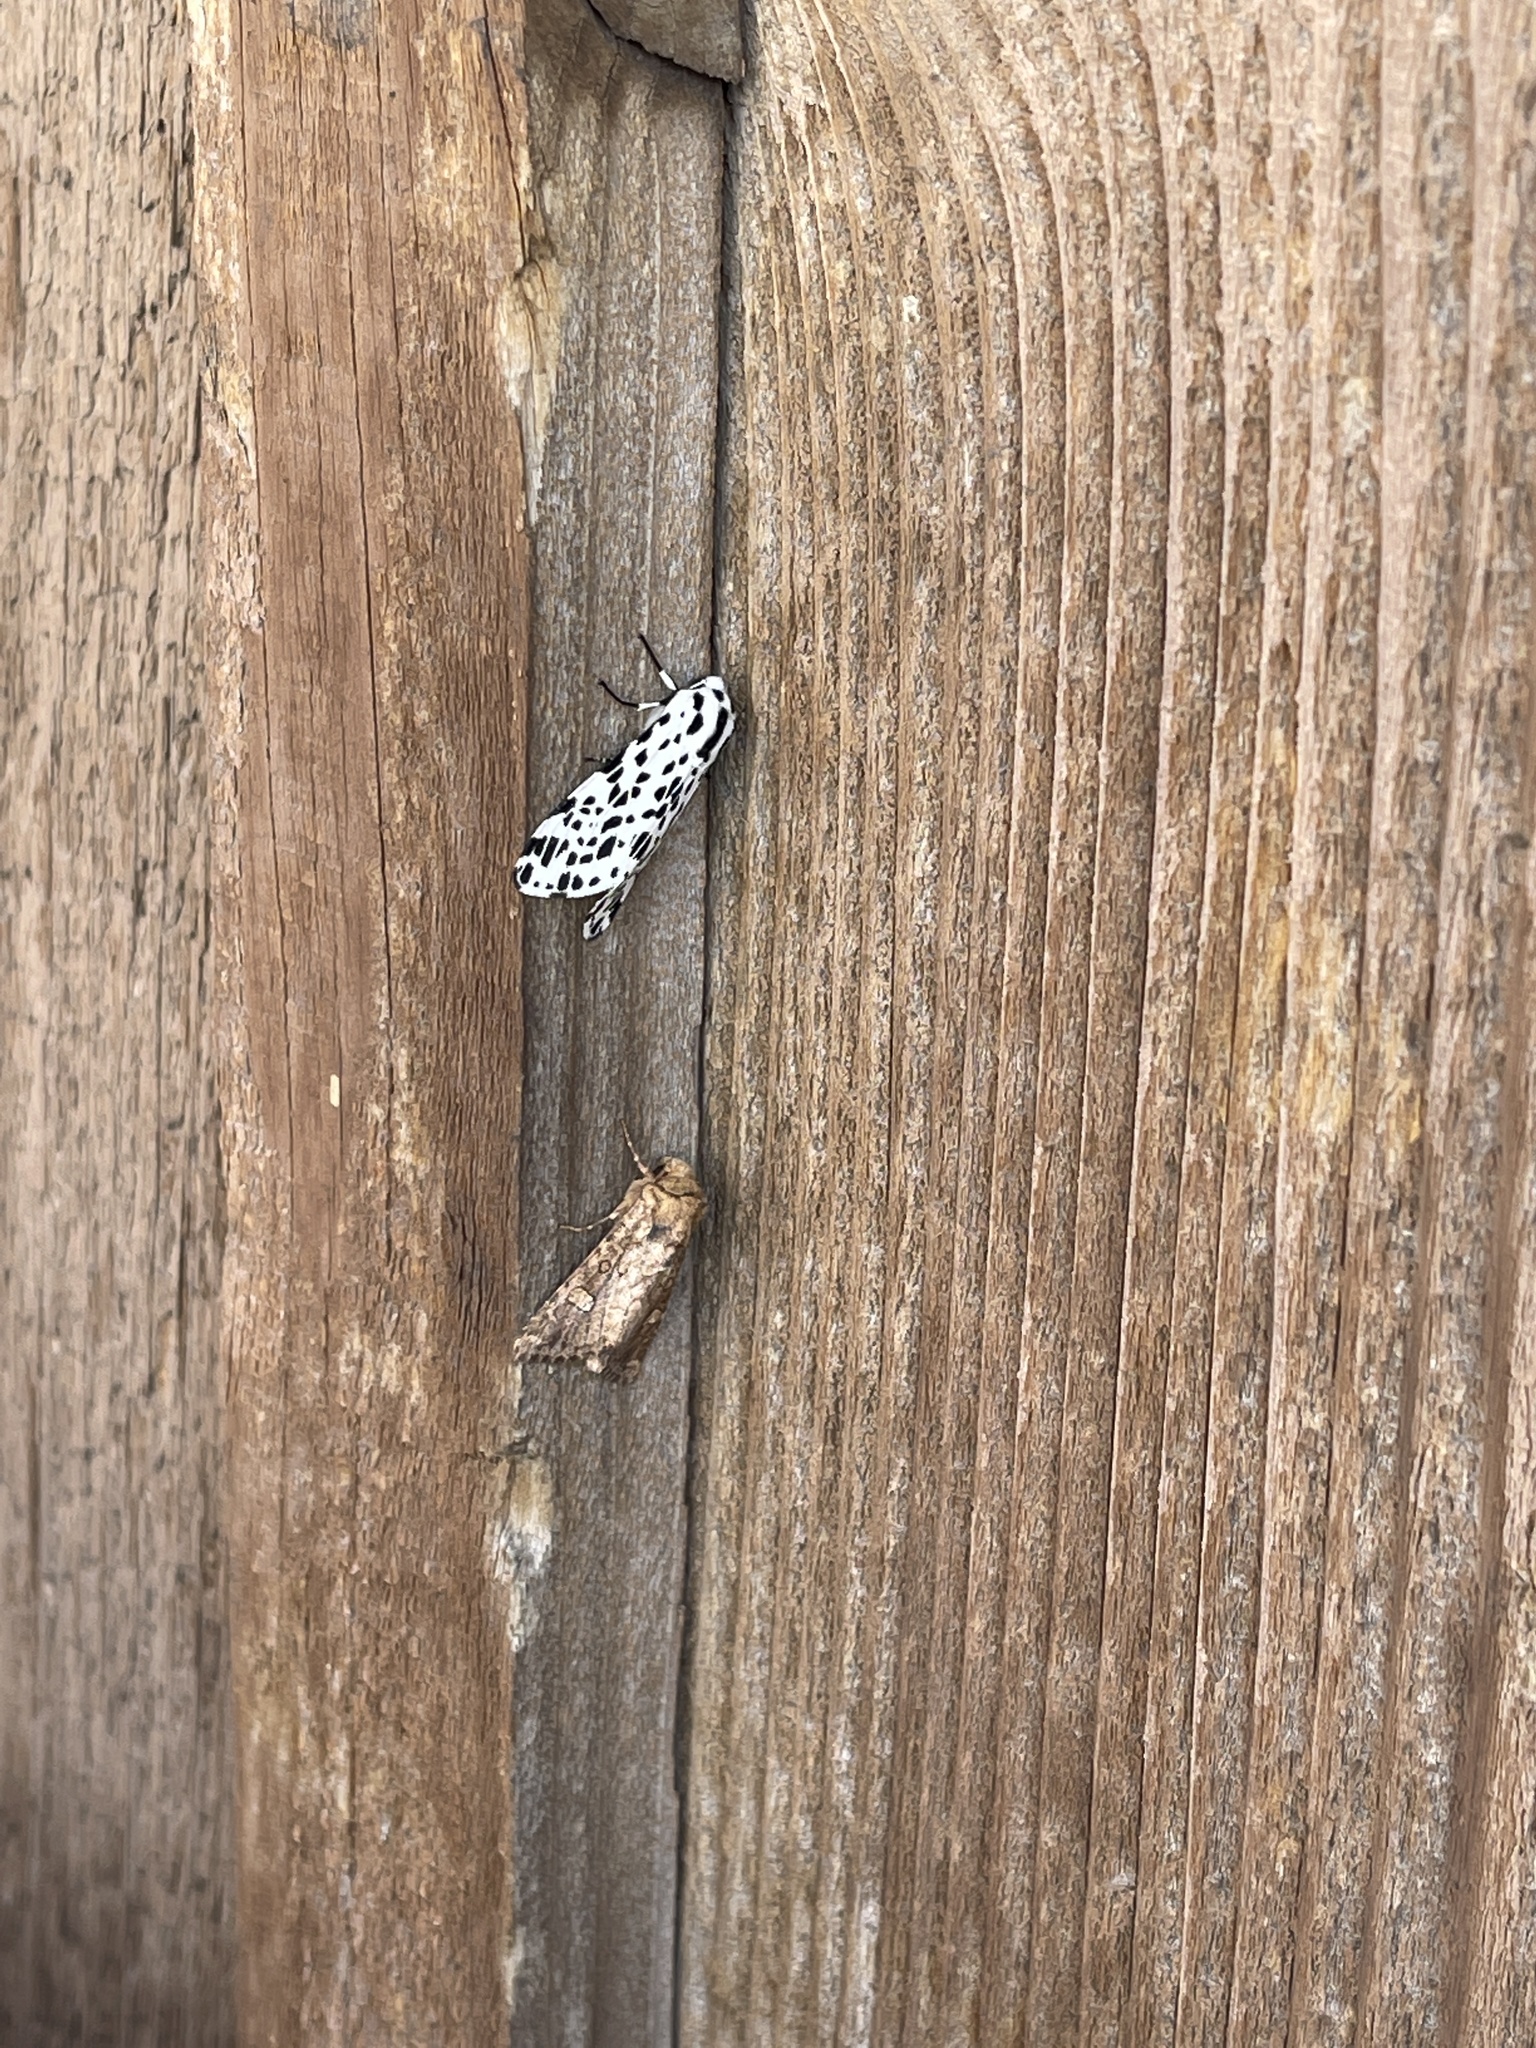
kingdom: Animalia
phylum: Arthropoda
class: Insecta
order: Lepidoptera
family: Erebidae
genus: Hypercompe
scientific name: Hypercompe permaculata
